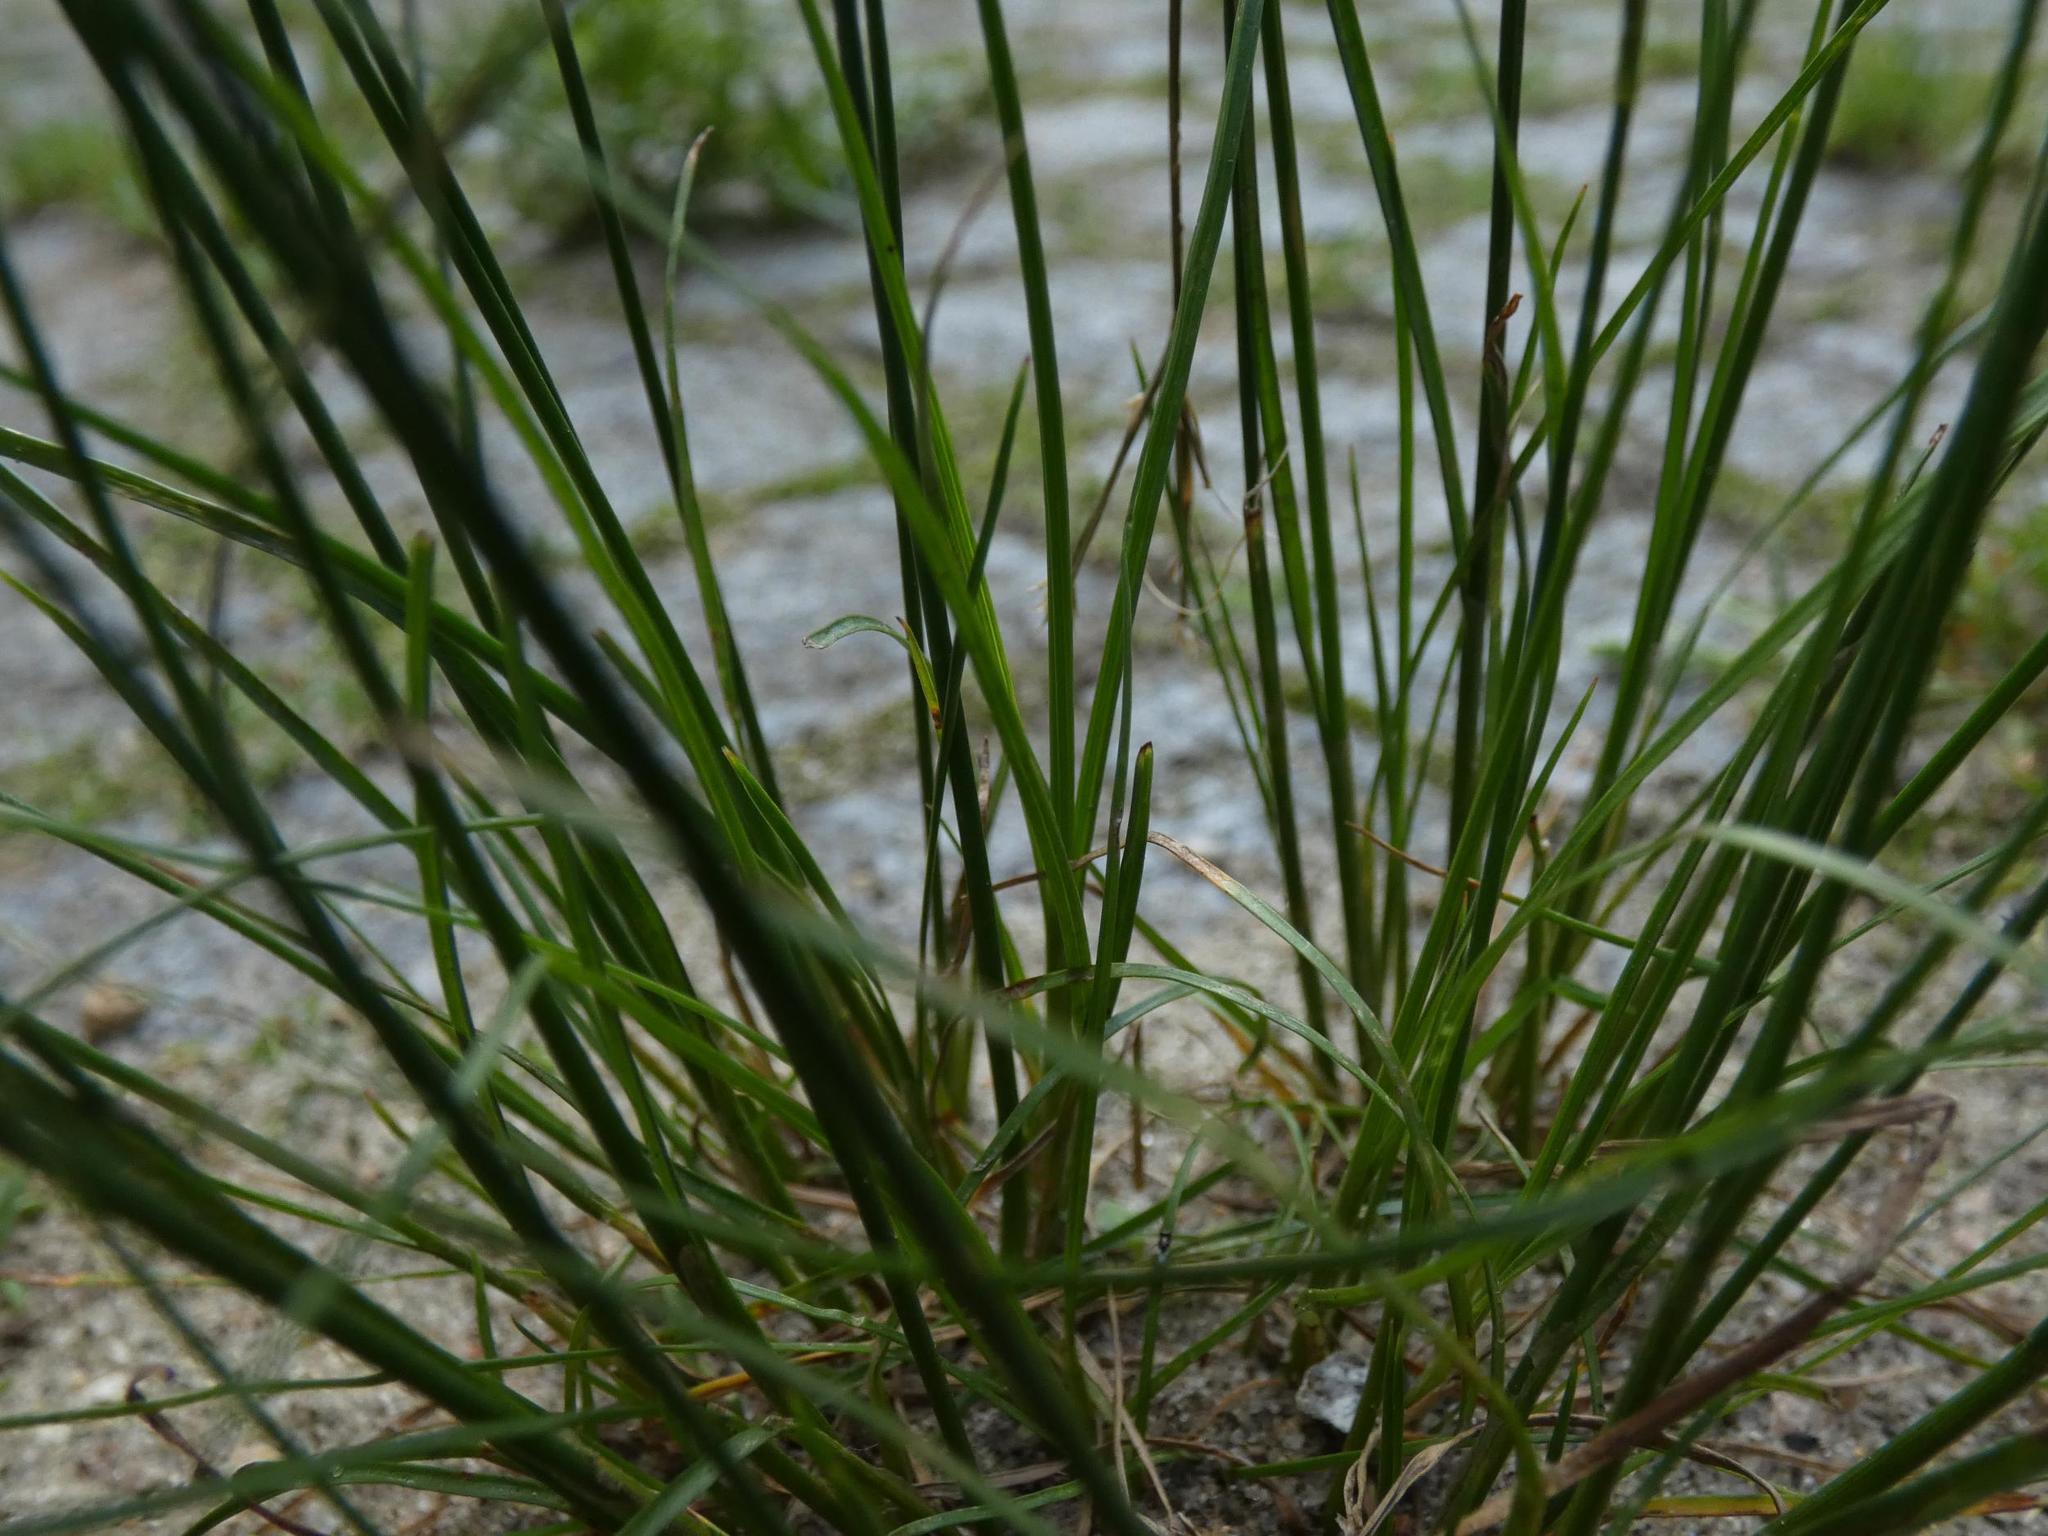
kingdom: Plantae
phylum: Tracheophyta
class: Liliopsida
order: Poales
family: Juncaceae
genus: Juncus
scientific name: Juncus tenuis
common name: Slender rush
